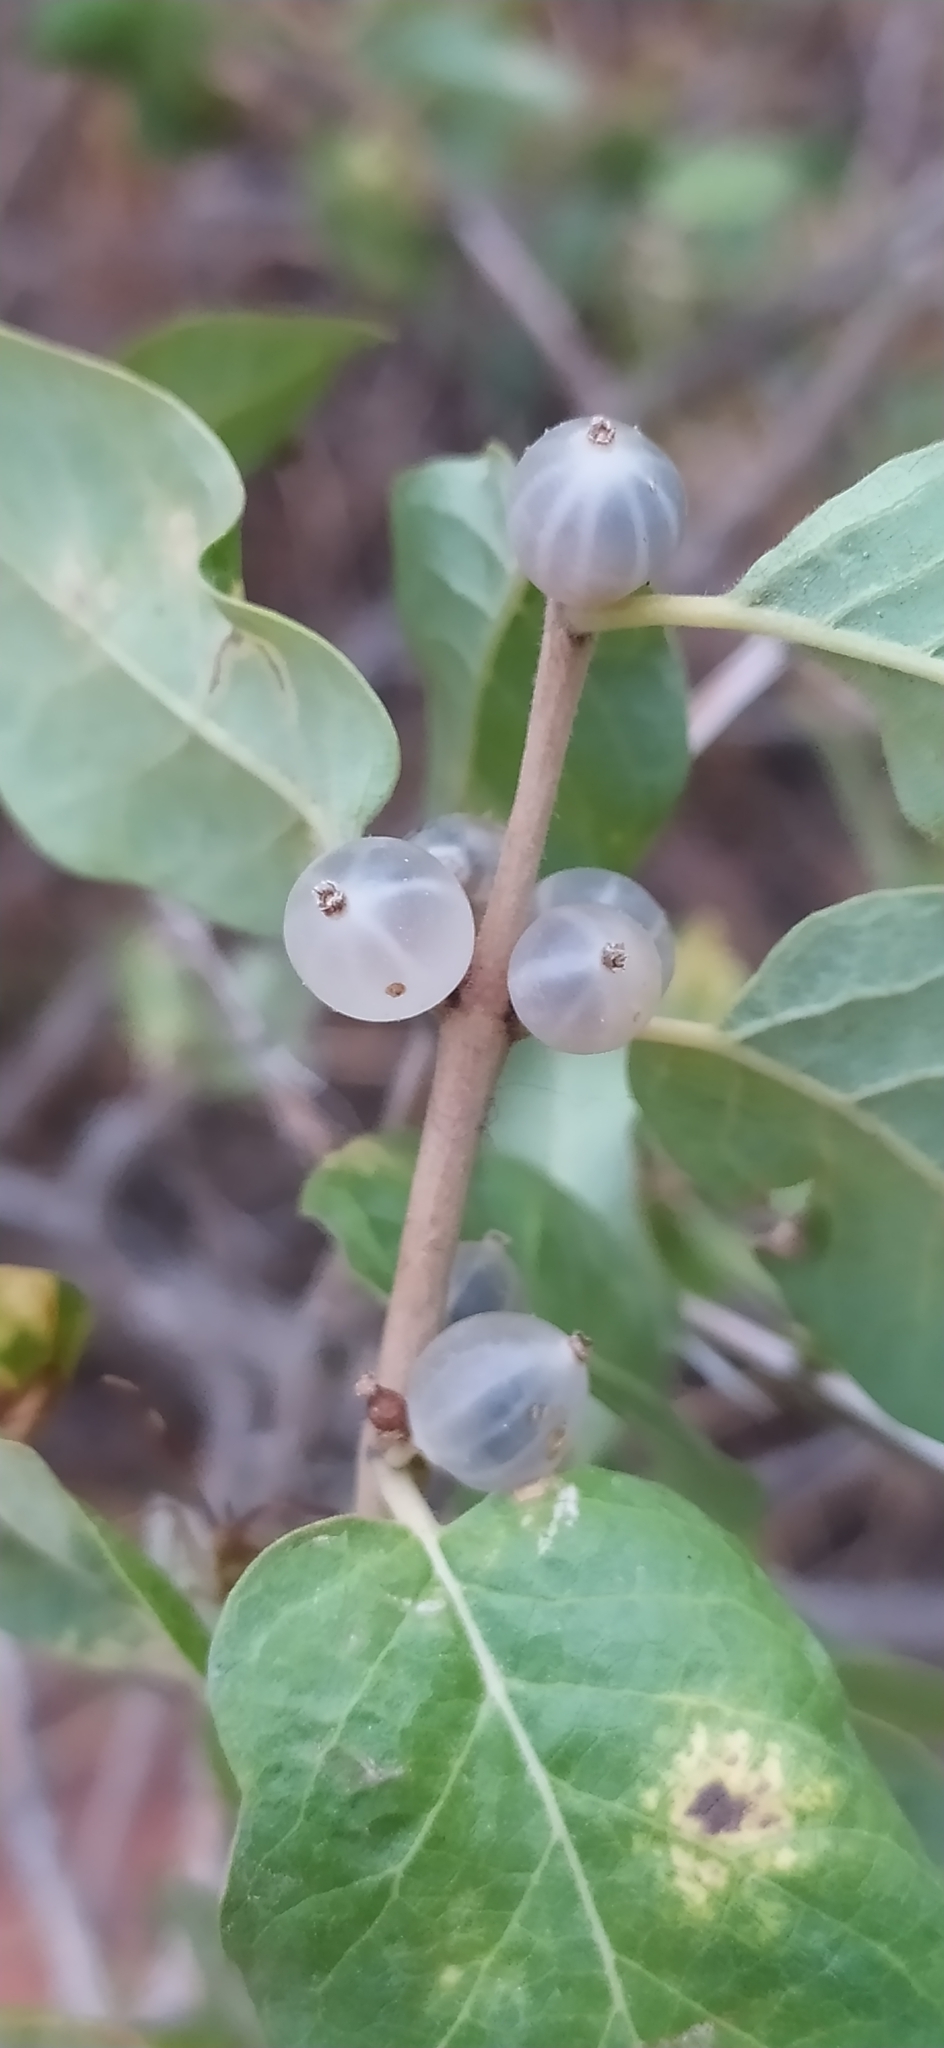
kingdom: Plantae
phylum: Tracheophyta
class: Magnoliopsida
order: Dipsacales
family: Caprifoliaceae
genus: Lonicera
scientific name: Lonicera nummulariifolia
